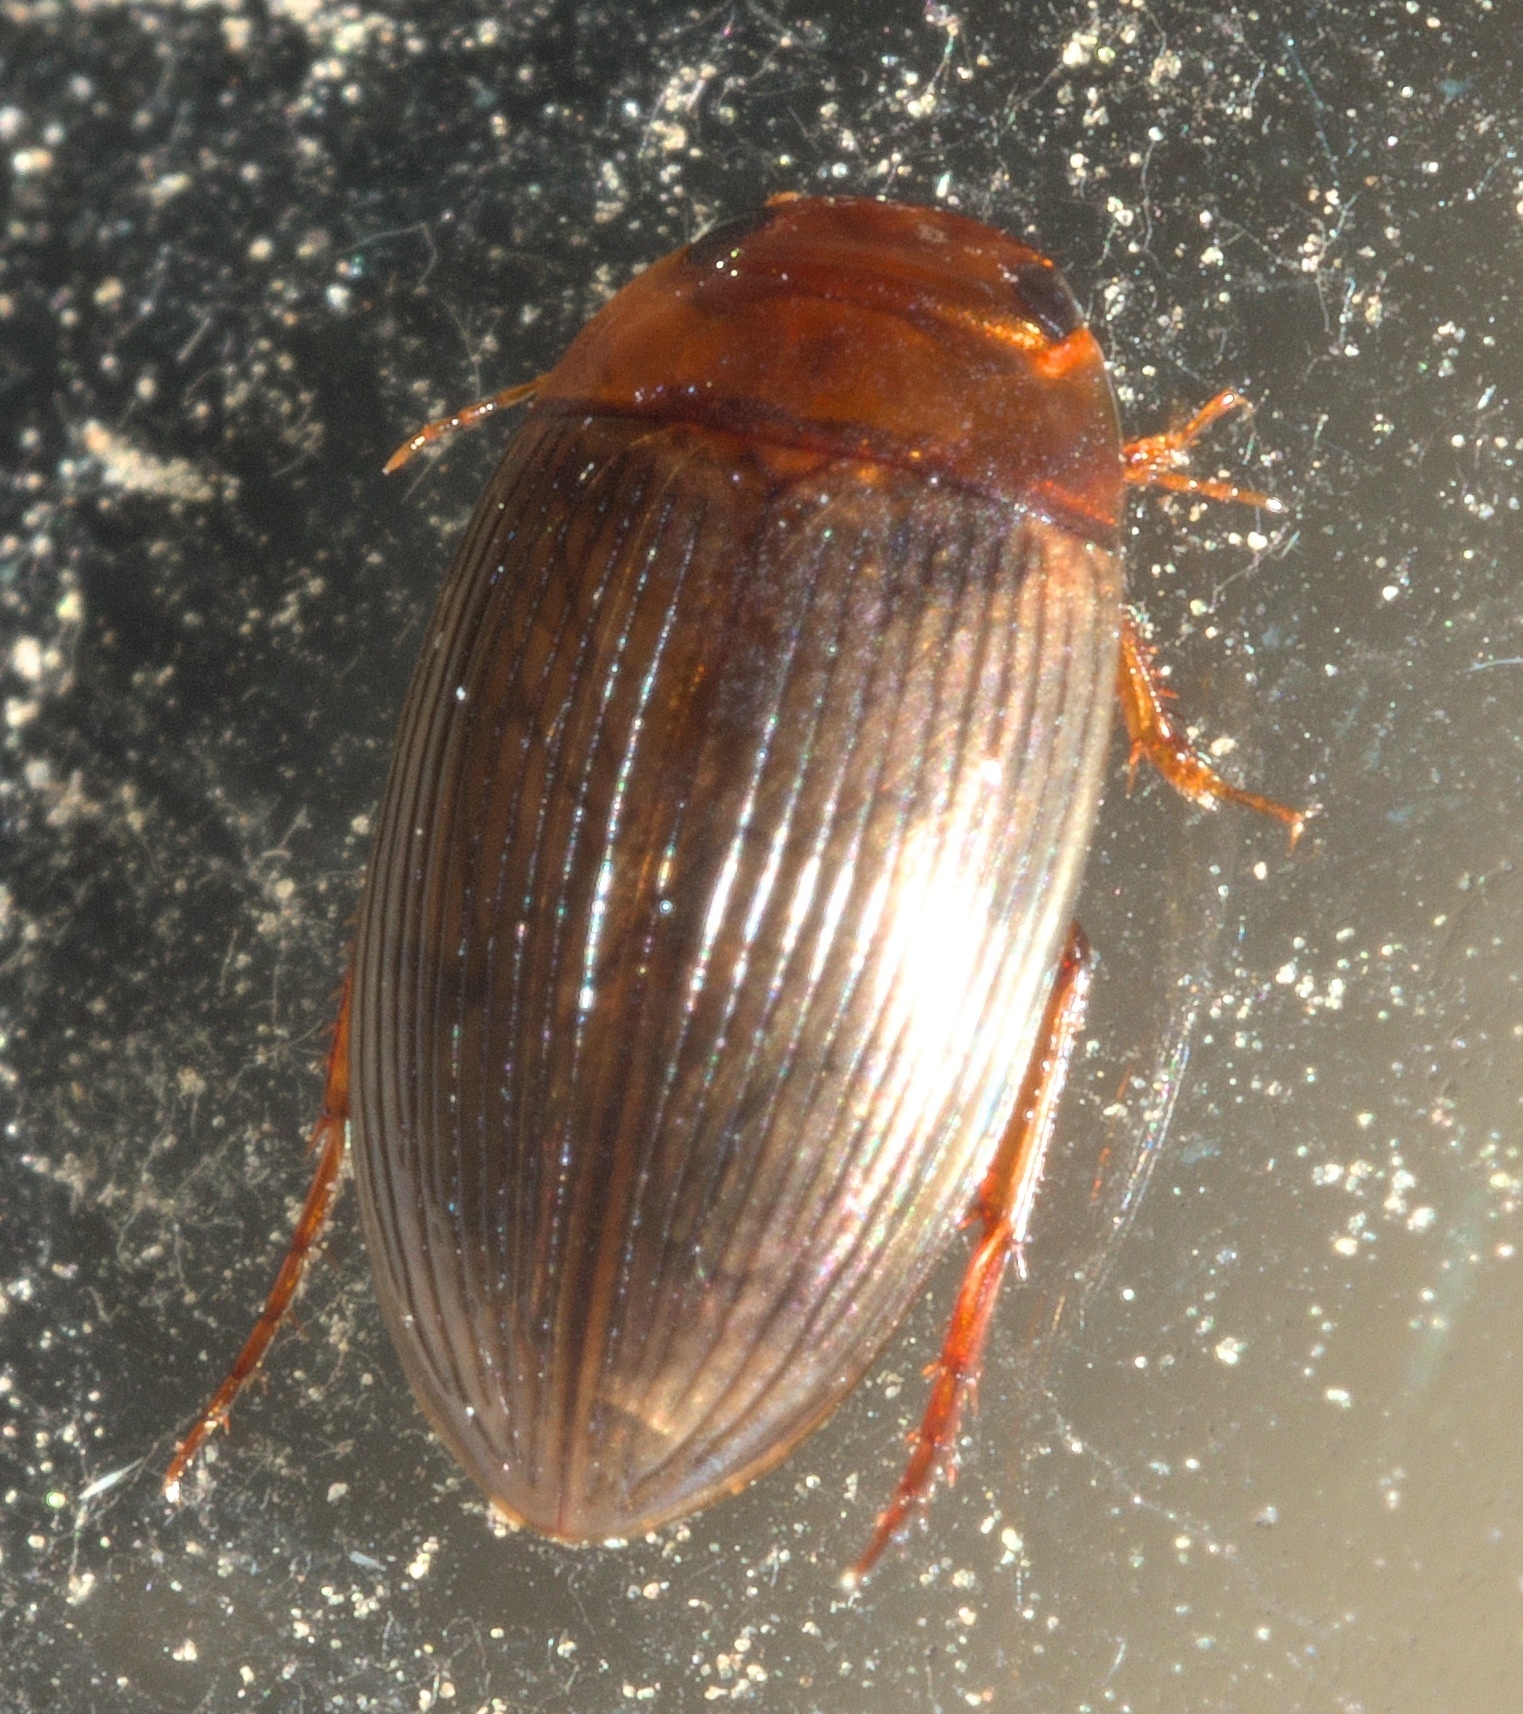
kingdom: Animalia
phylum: Arthropoda
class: Insecta
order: Coleoptera
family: Dytiscidae
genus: Copelatus
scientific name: Copelatus glyphicus
